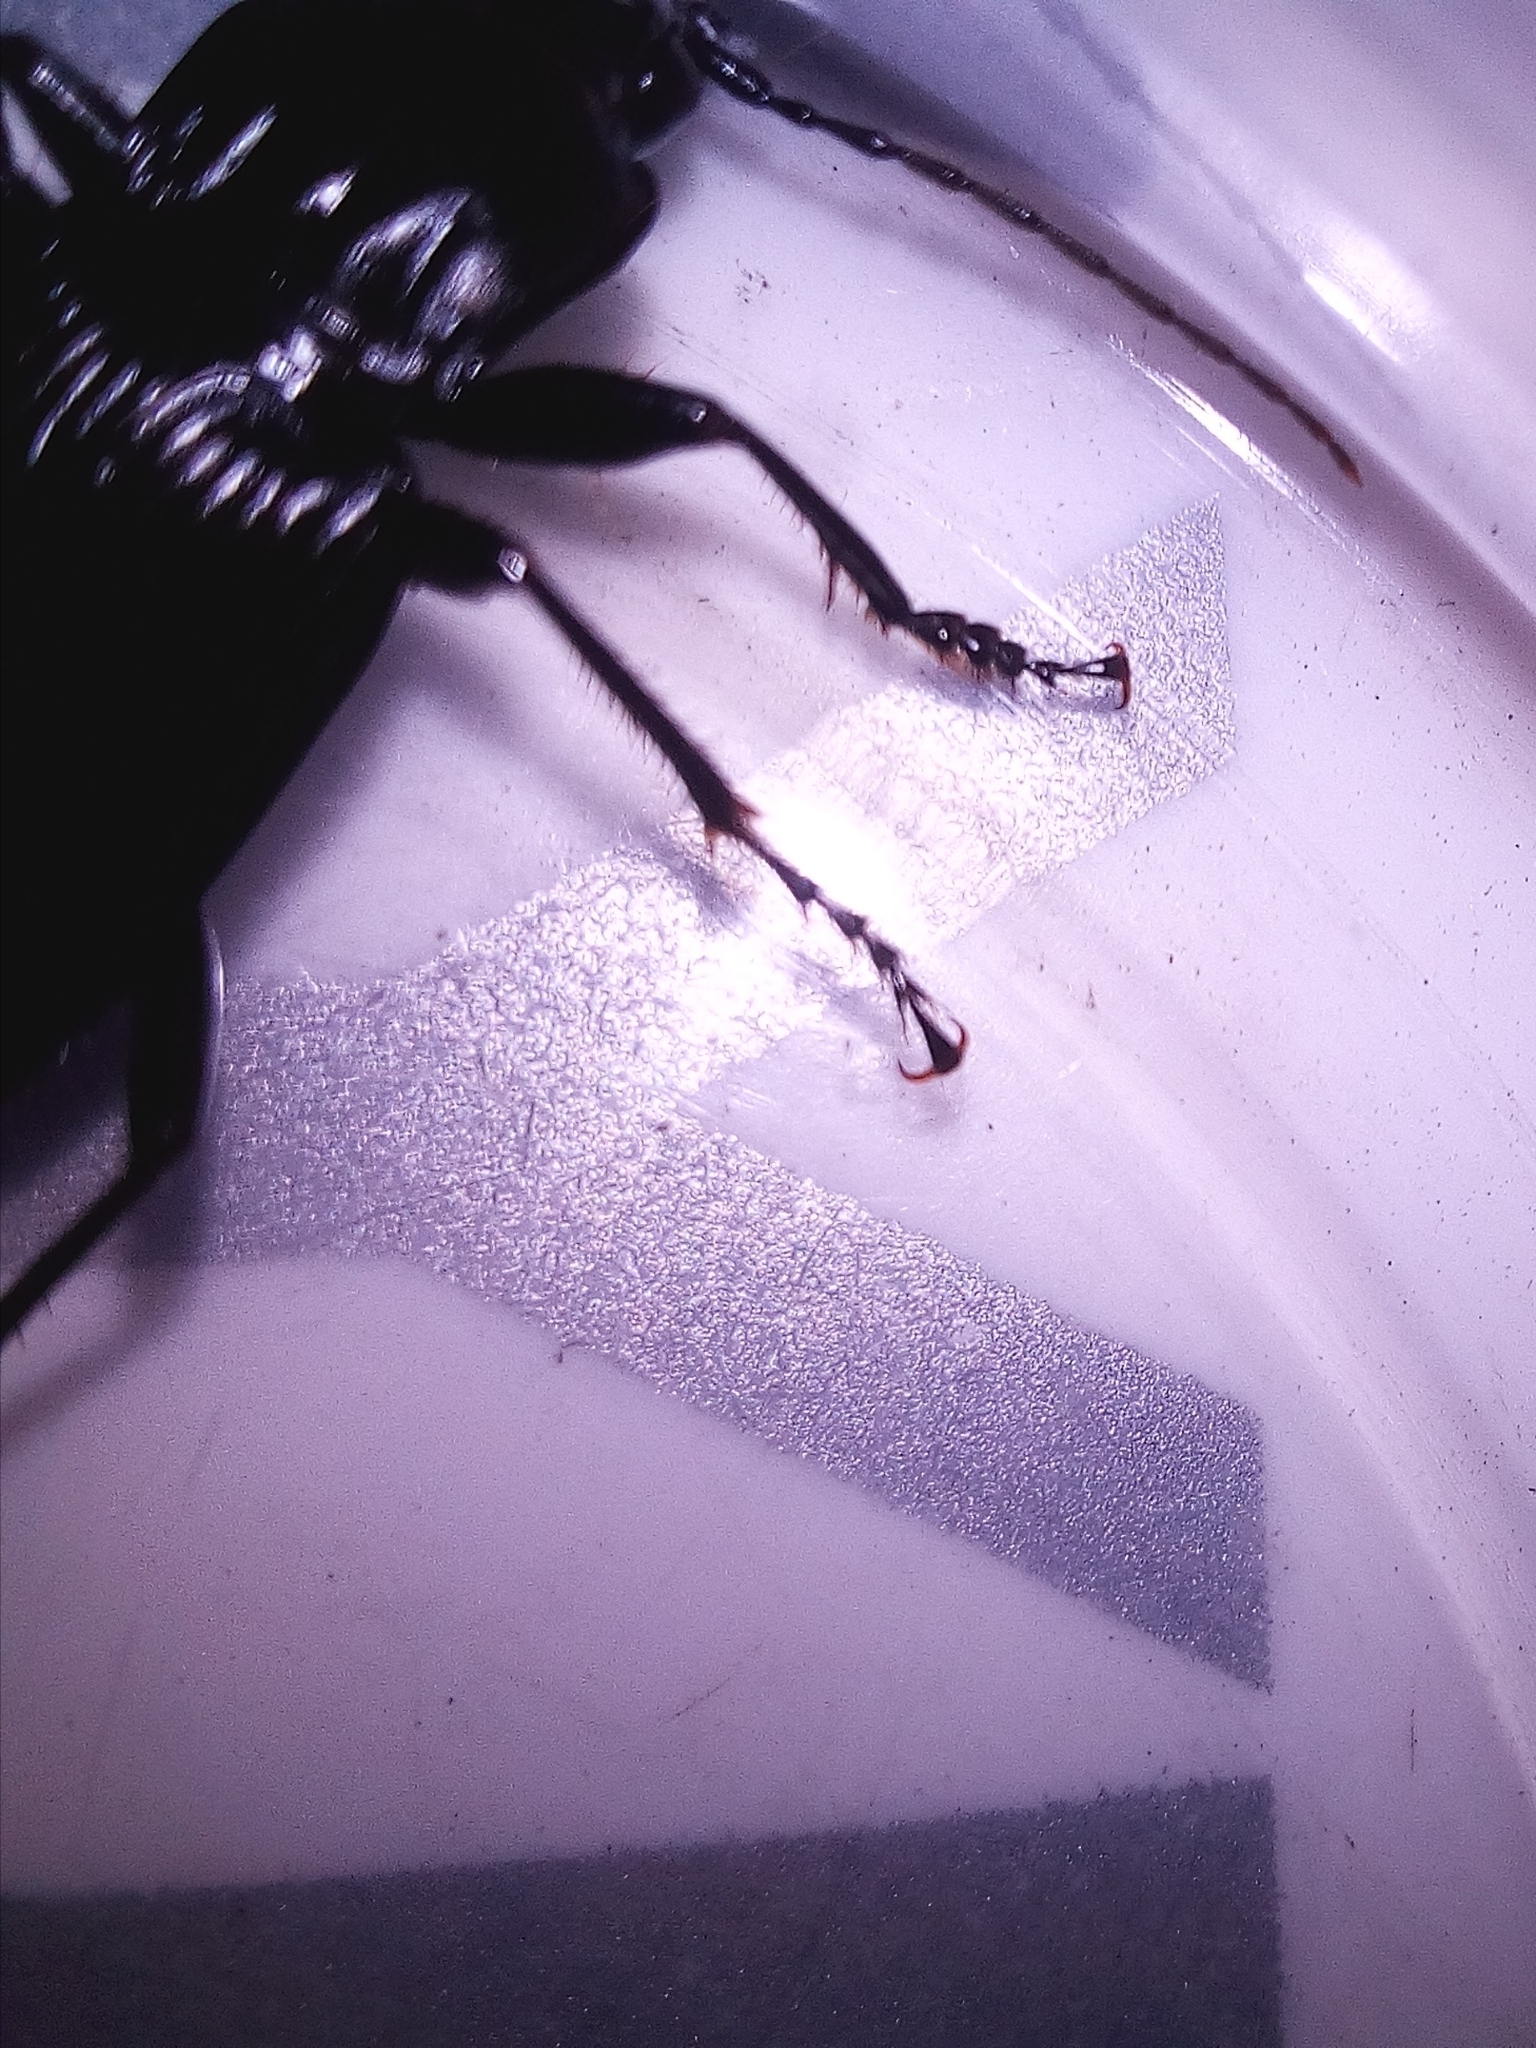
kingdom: Animalia
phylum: Arthropoda
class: Insecta
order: Coleoptera
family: Carabidae
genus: Pterostichus
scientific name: Pterostichus niger
